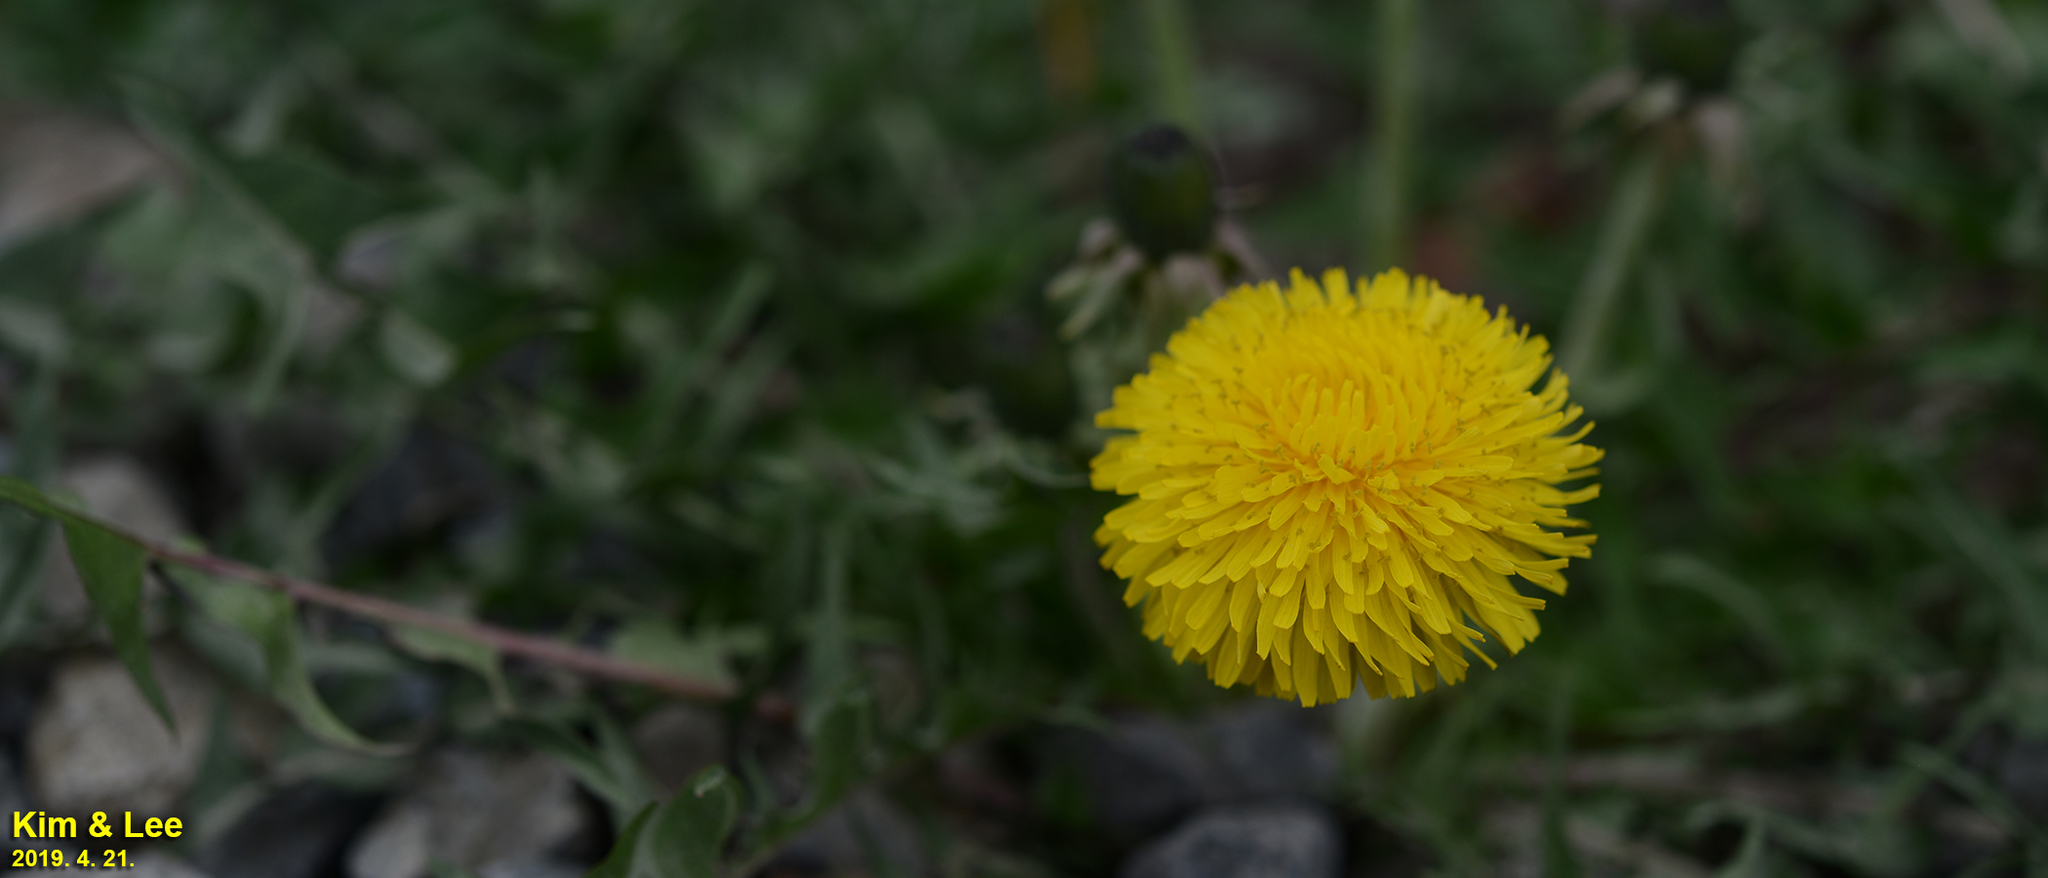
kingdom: Plantae
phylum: Tracheophyta
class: Magnoliopsida
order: Asterales
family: Asteraceae
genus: Taraxacum
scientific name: Taraxacum officinale
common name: Common dandelion
